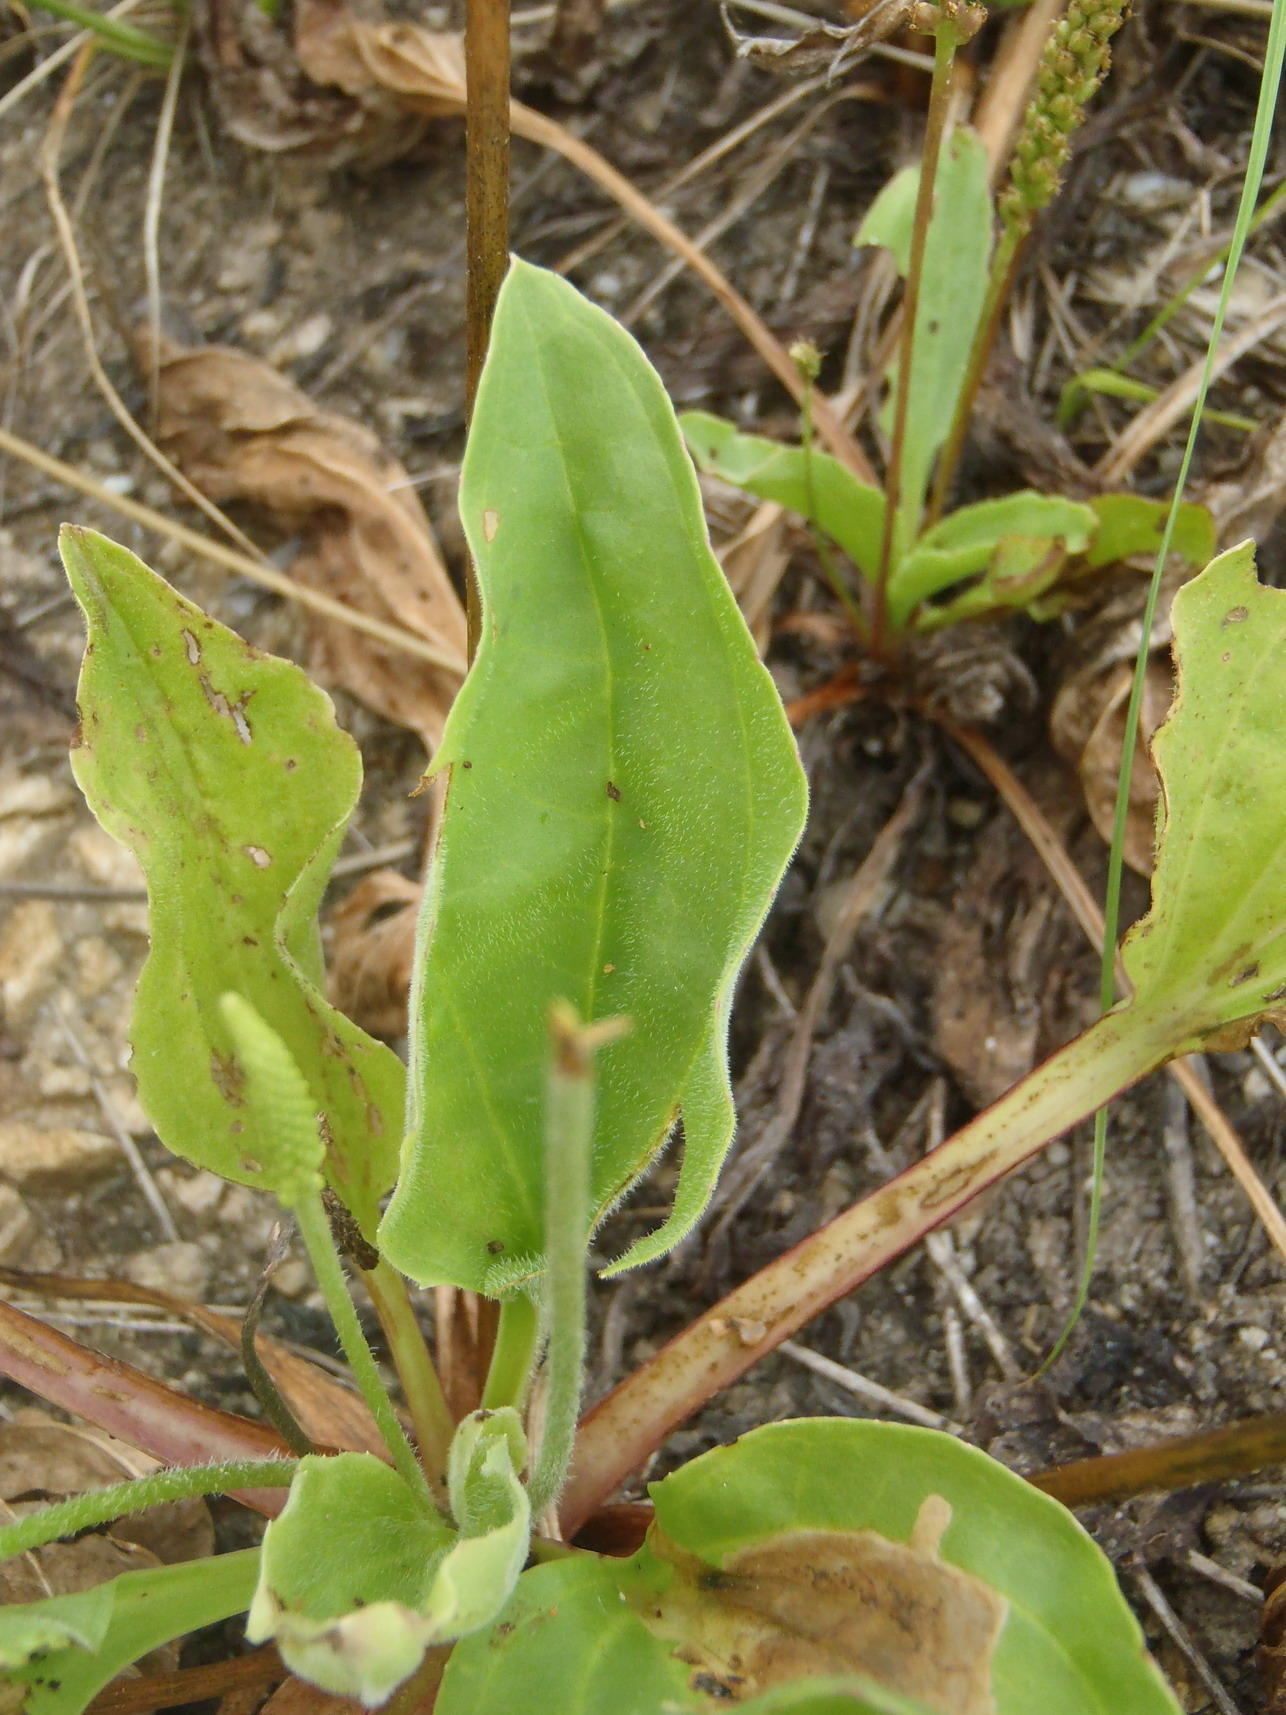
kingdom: Plantae
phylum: Tracheophyta
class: Magnoliopsida
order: Lamiales
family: Plantaginaceae
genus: Plantago
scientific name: Plantago major
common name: Common plantain
